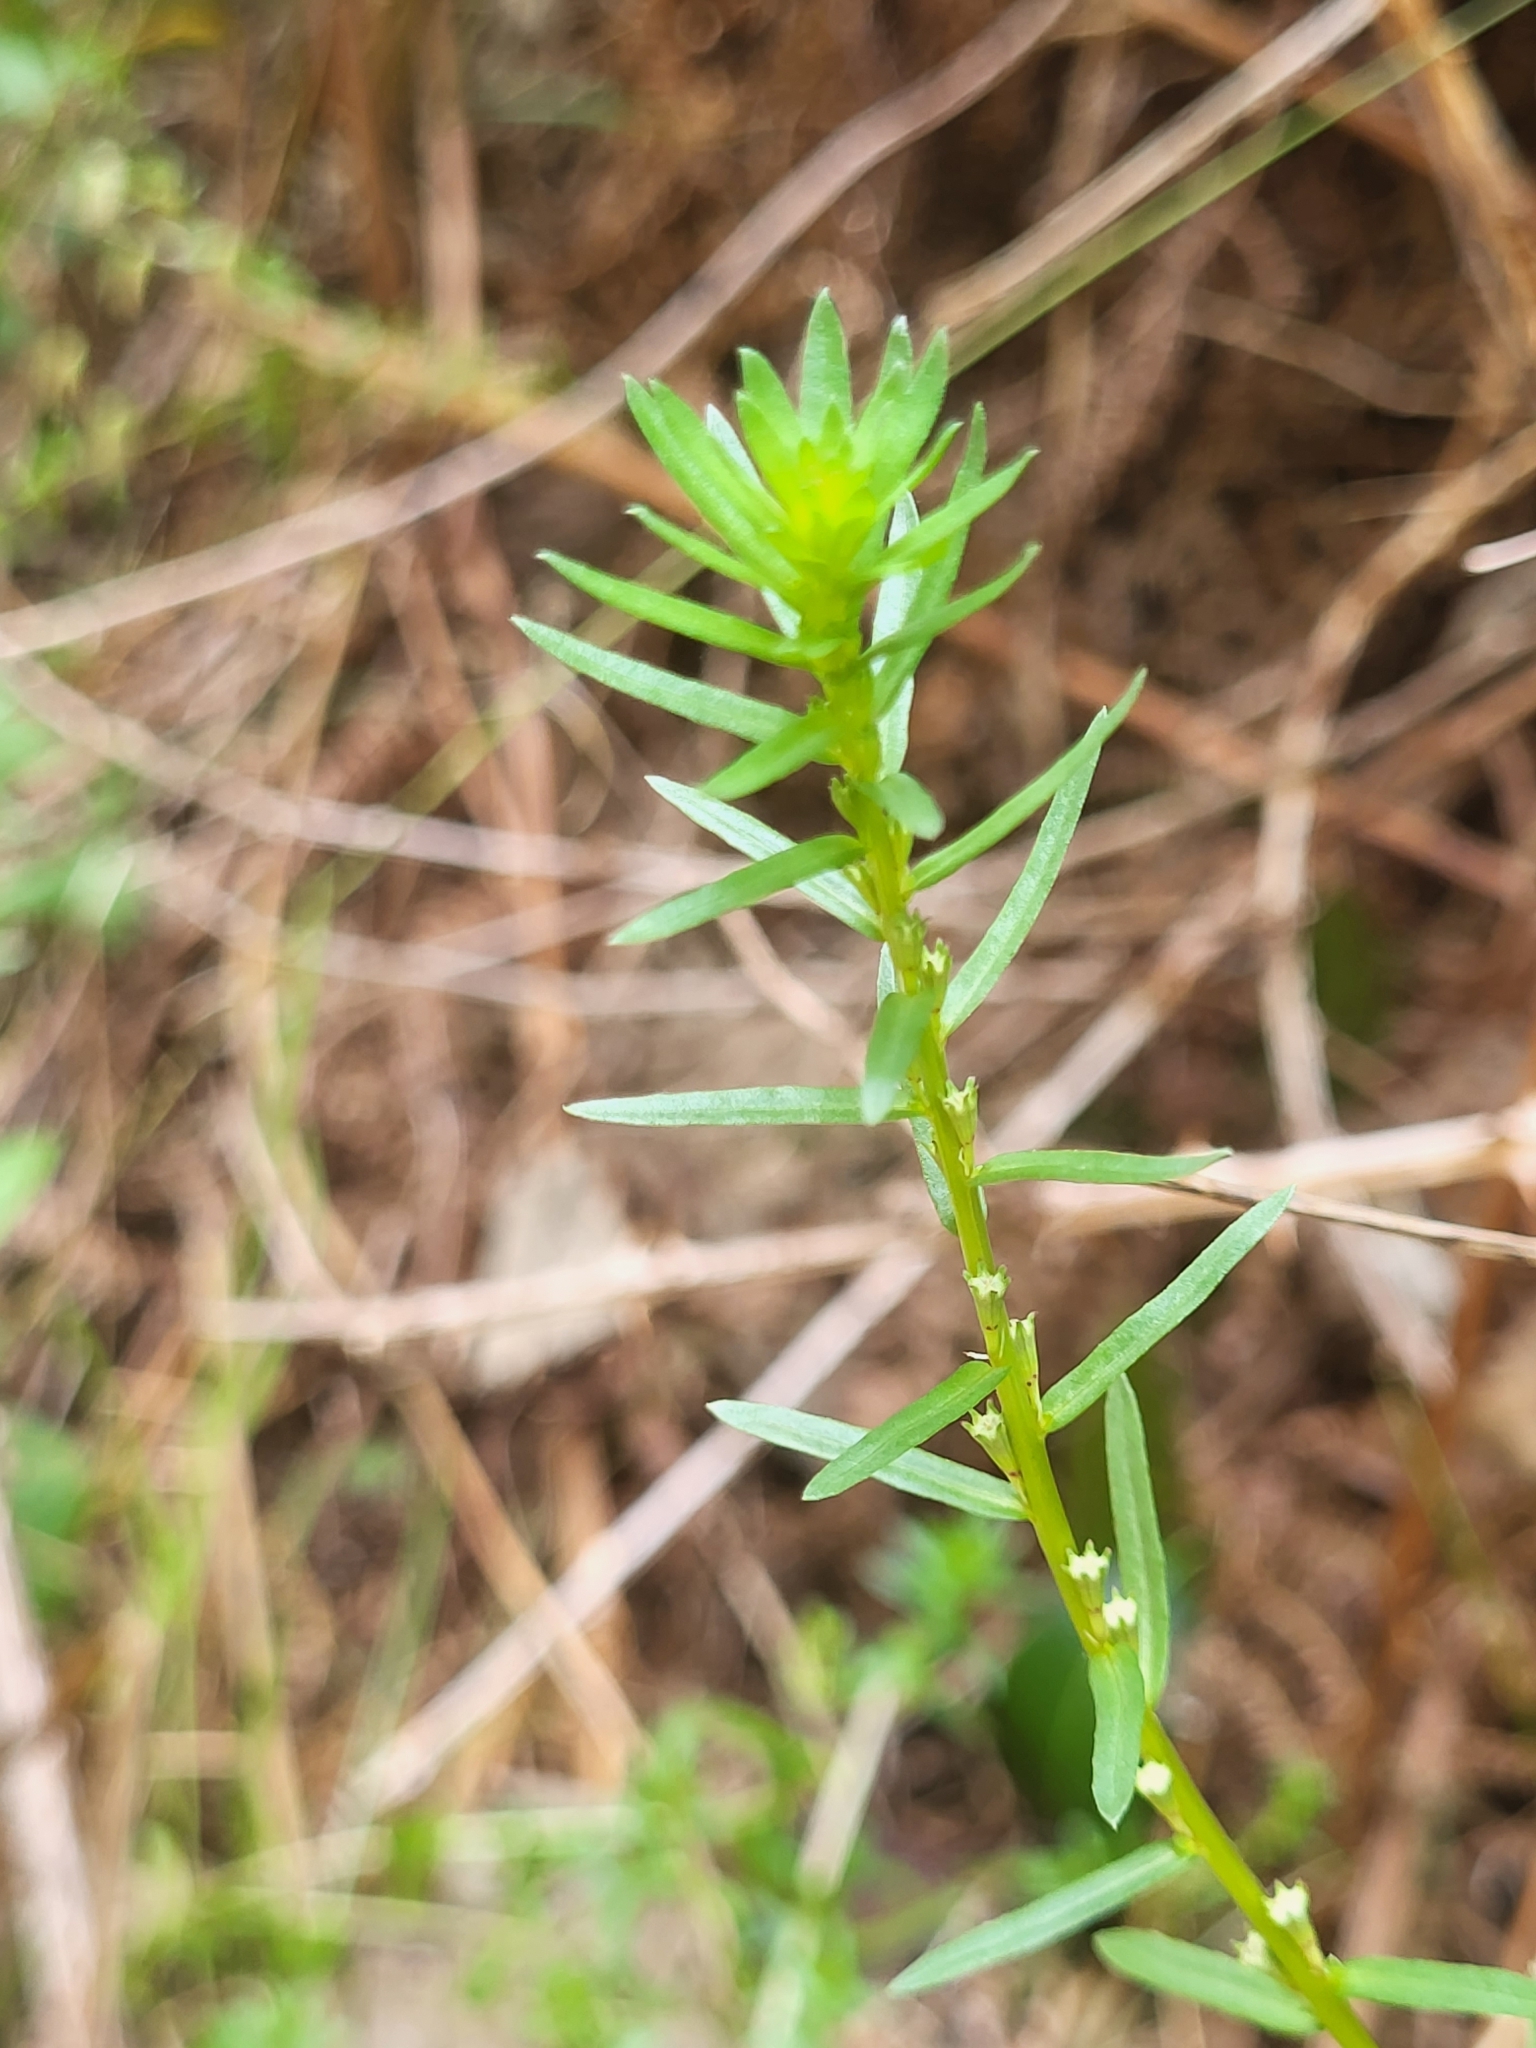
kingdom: Plantae
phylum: Tracheophyta
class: Magnoliopsida
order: Myrtales
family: Lythraceae
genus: Lythrum
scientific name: Lythrum junceum
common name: False grass-poly
